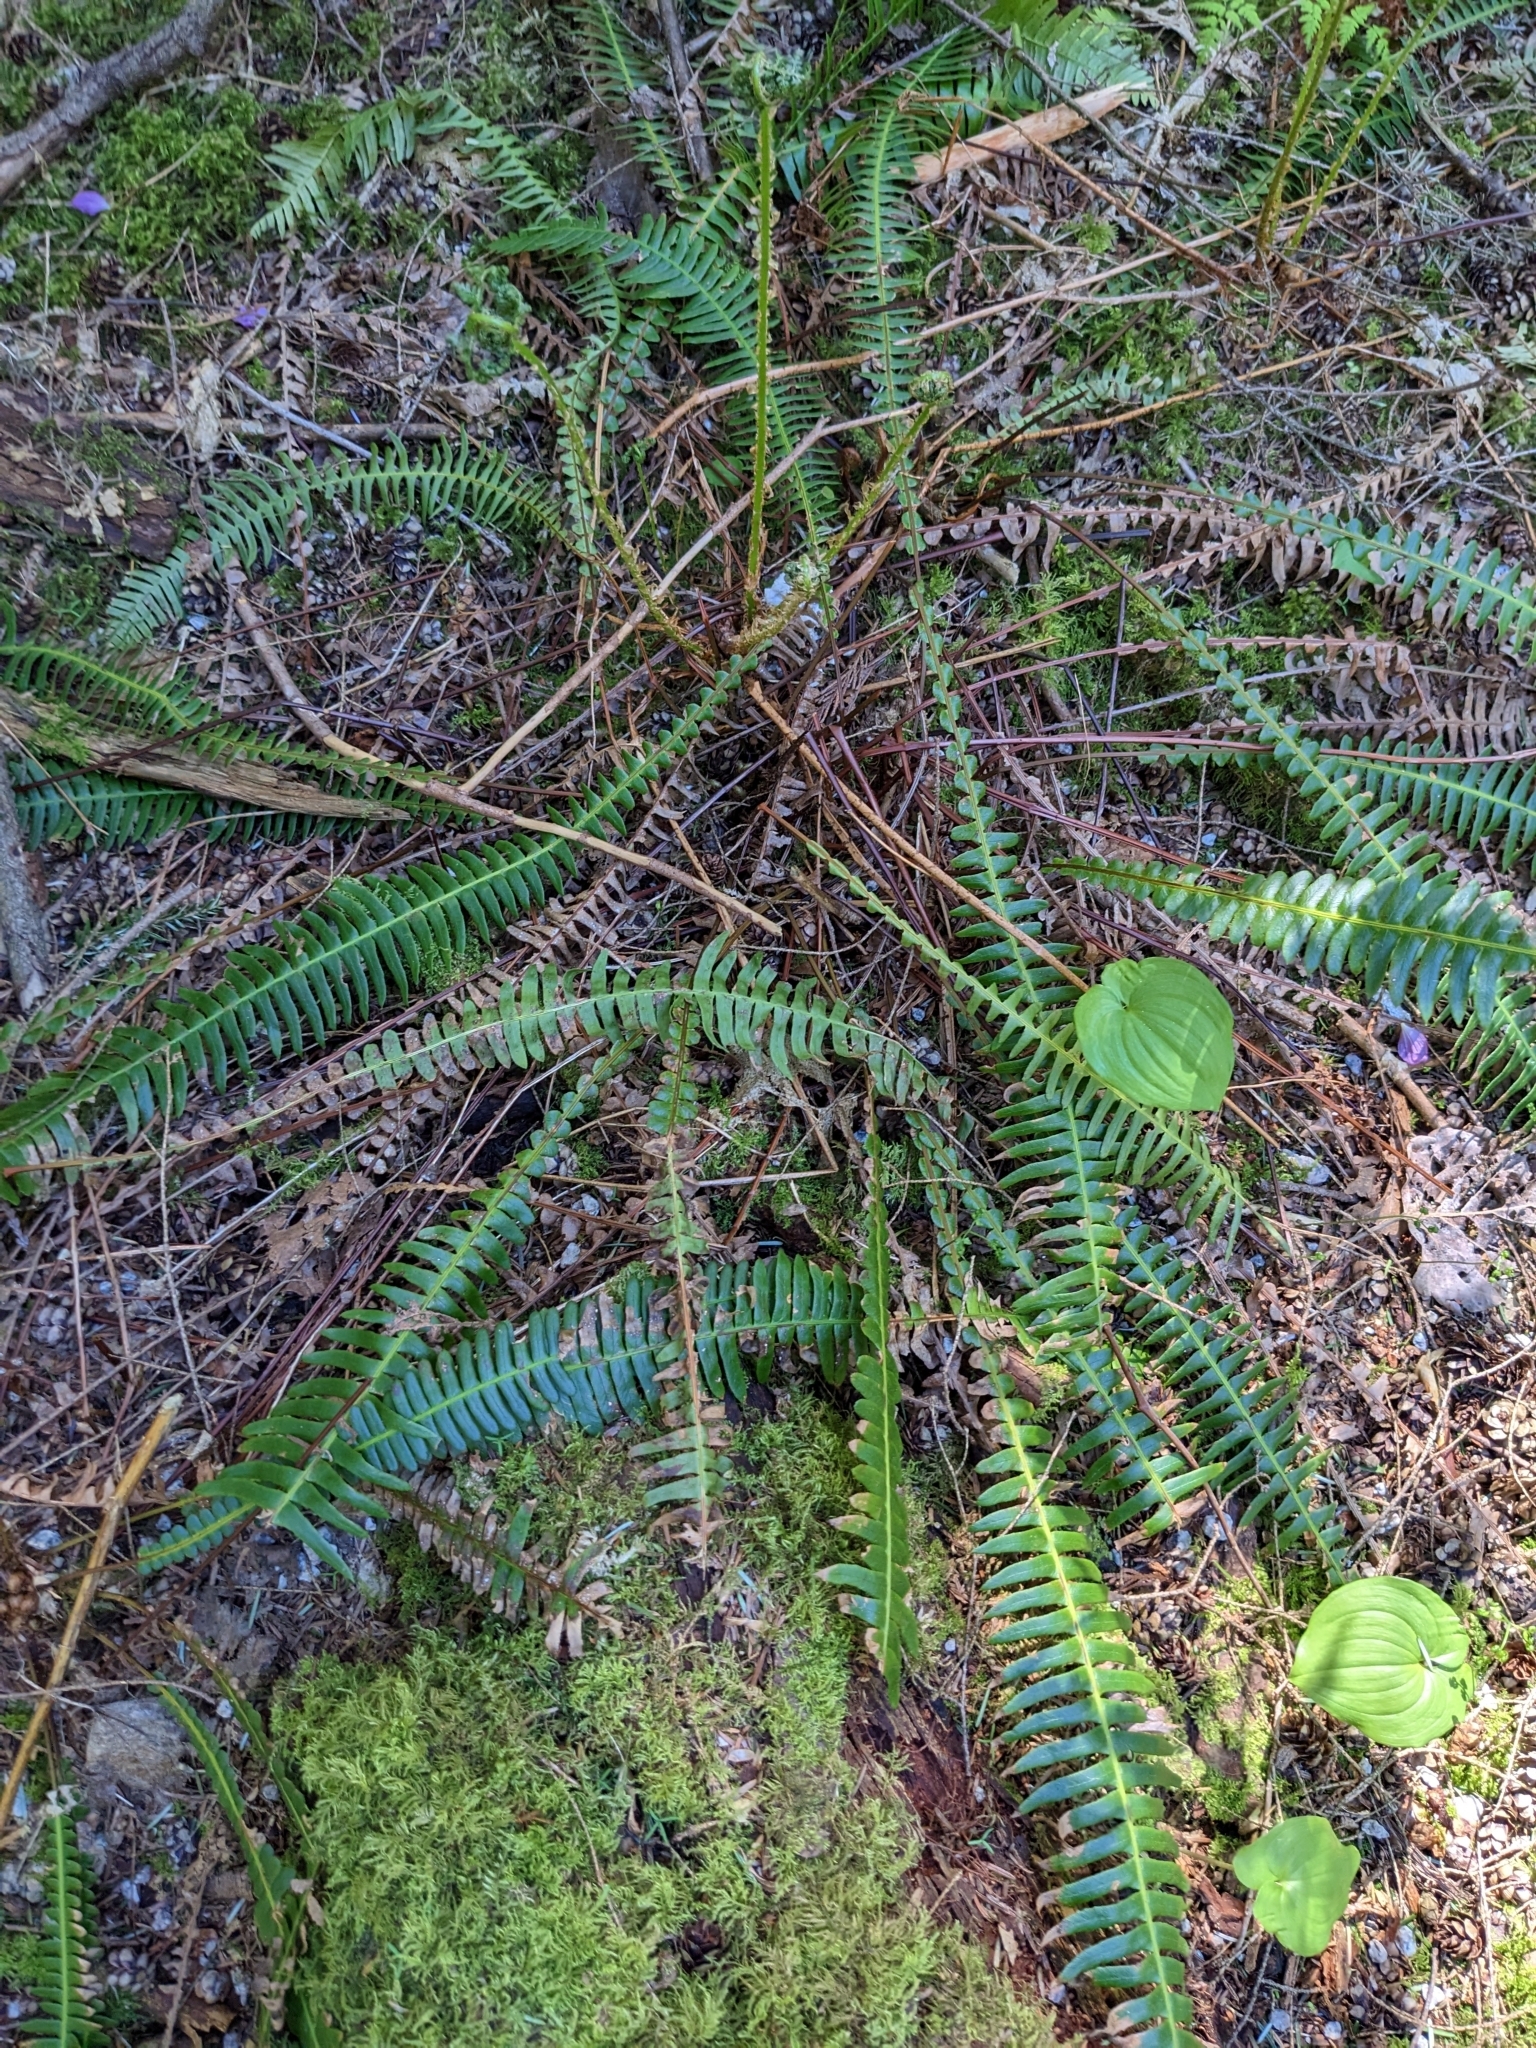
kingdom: Plantae
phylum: Tracheophyta
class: Polypodiopsida
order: Polypodiales
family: Blechnaceae
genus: Struthiopteris
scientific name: Struthiopteris spicant
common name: Deer fern
